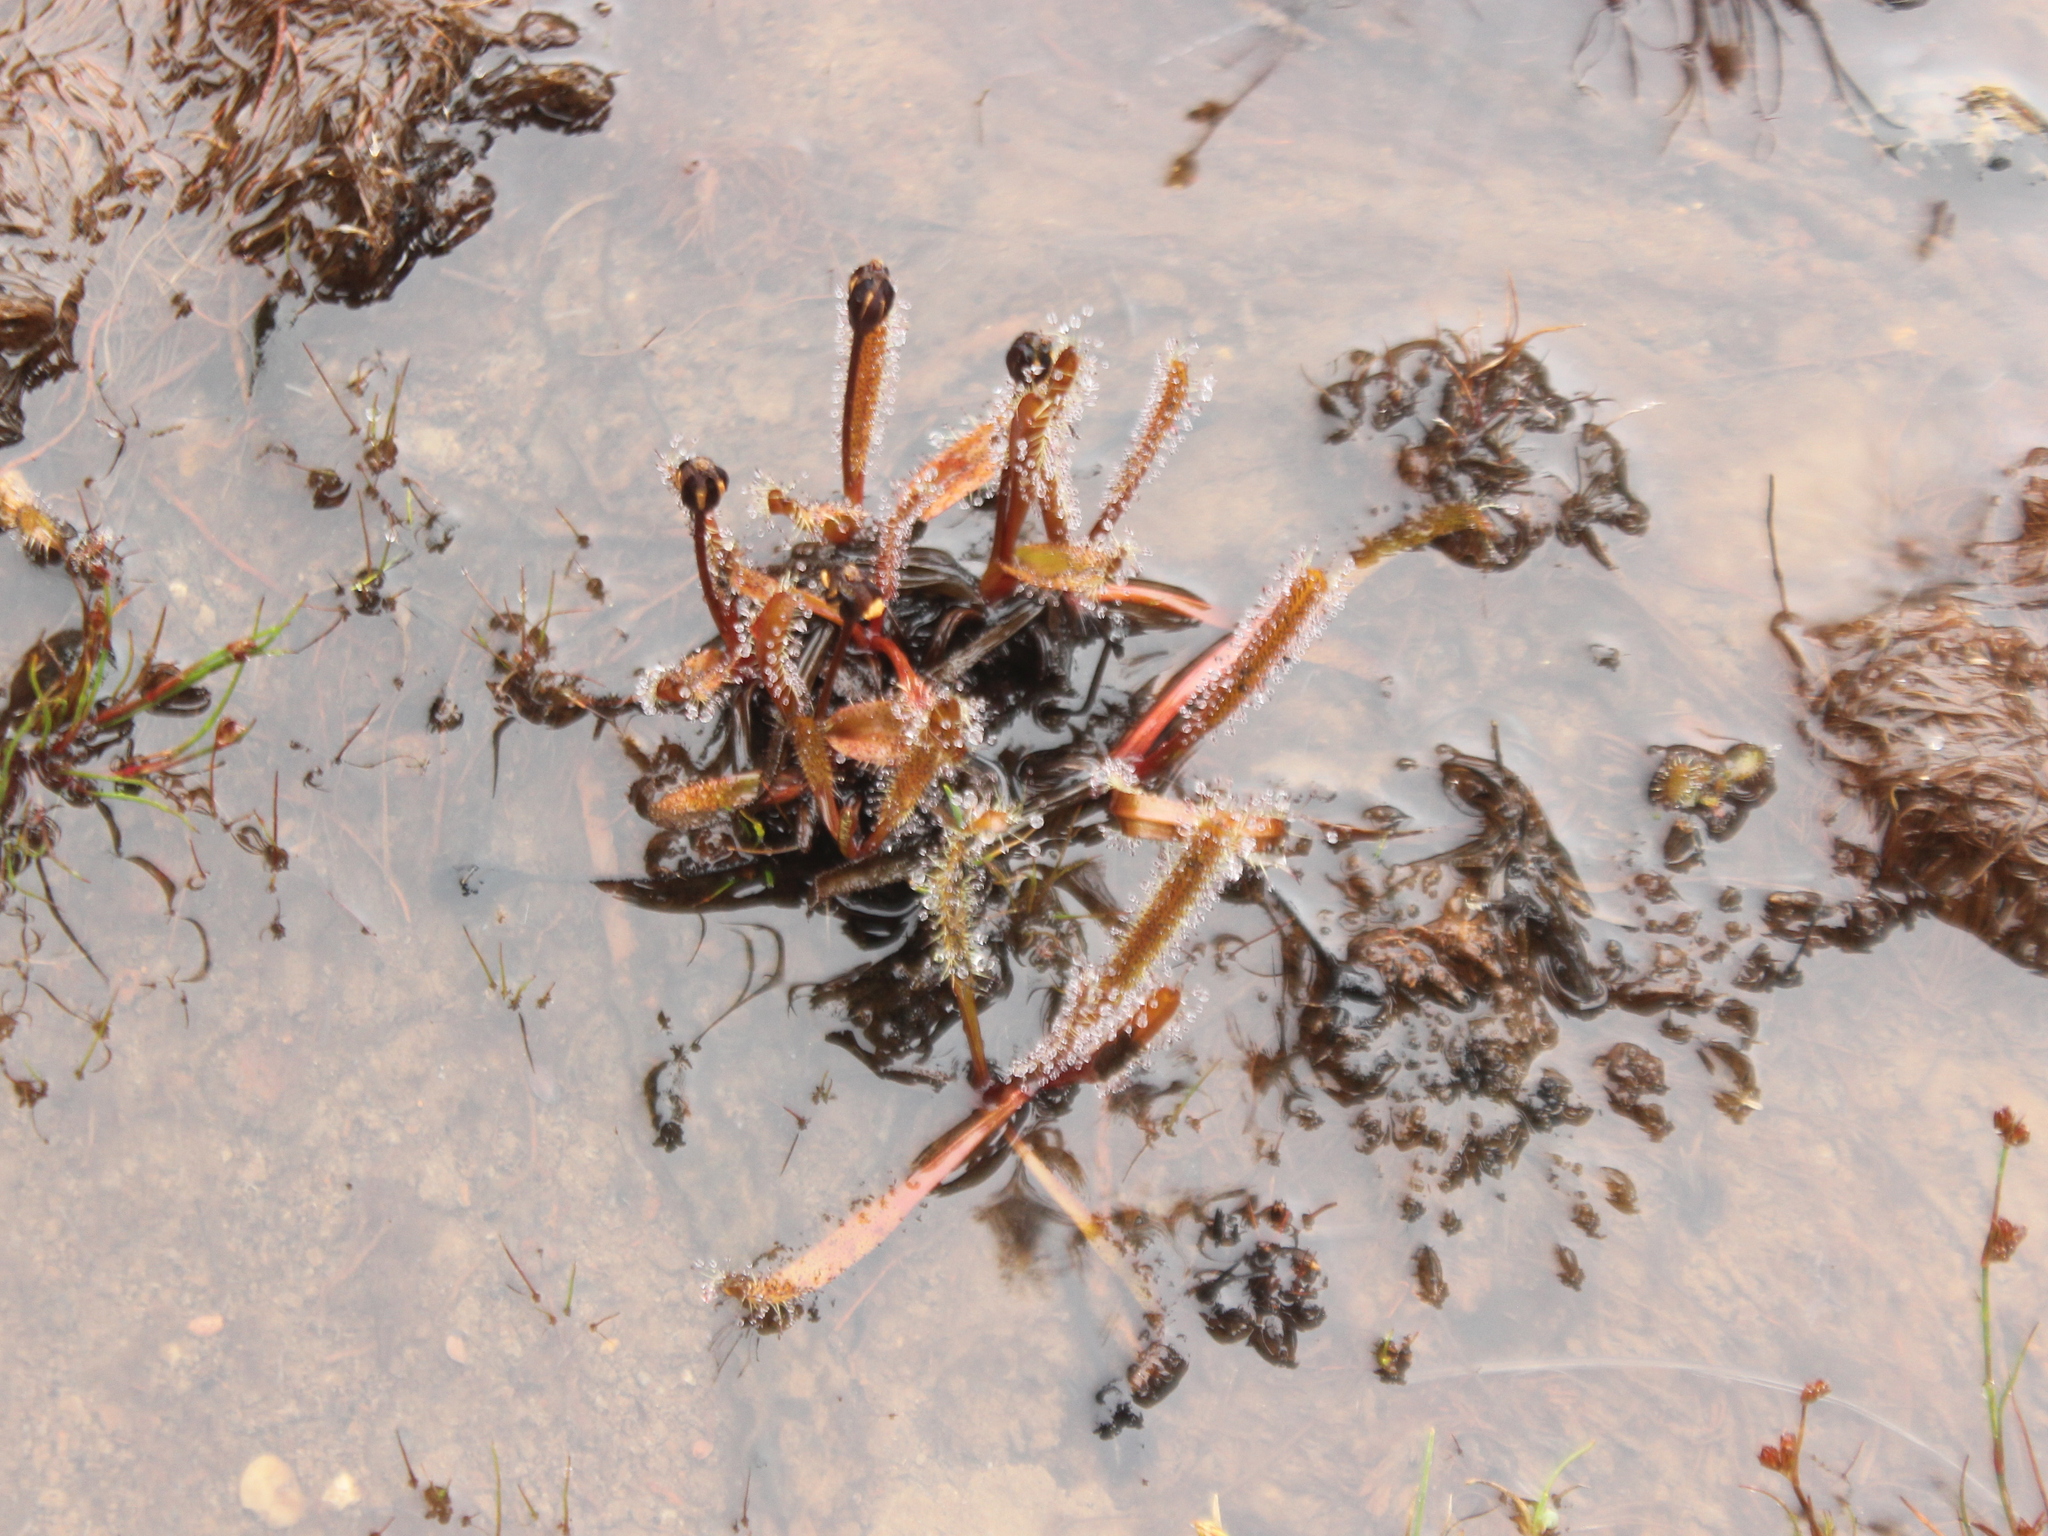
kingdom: Plantae
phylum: Tracheophyta
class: Magnoliopsida
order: Caryophyllales
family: Droseraceae
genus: Drosera
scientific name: Drosera arcturi
